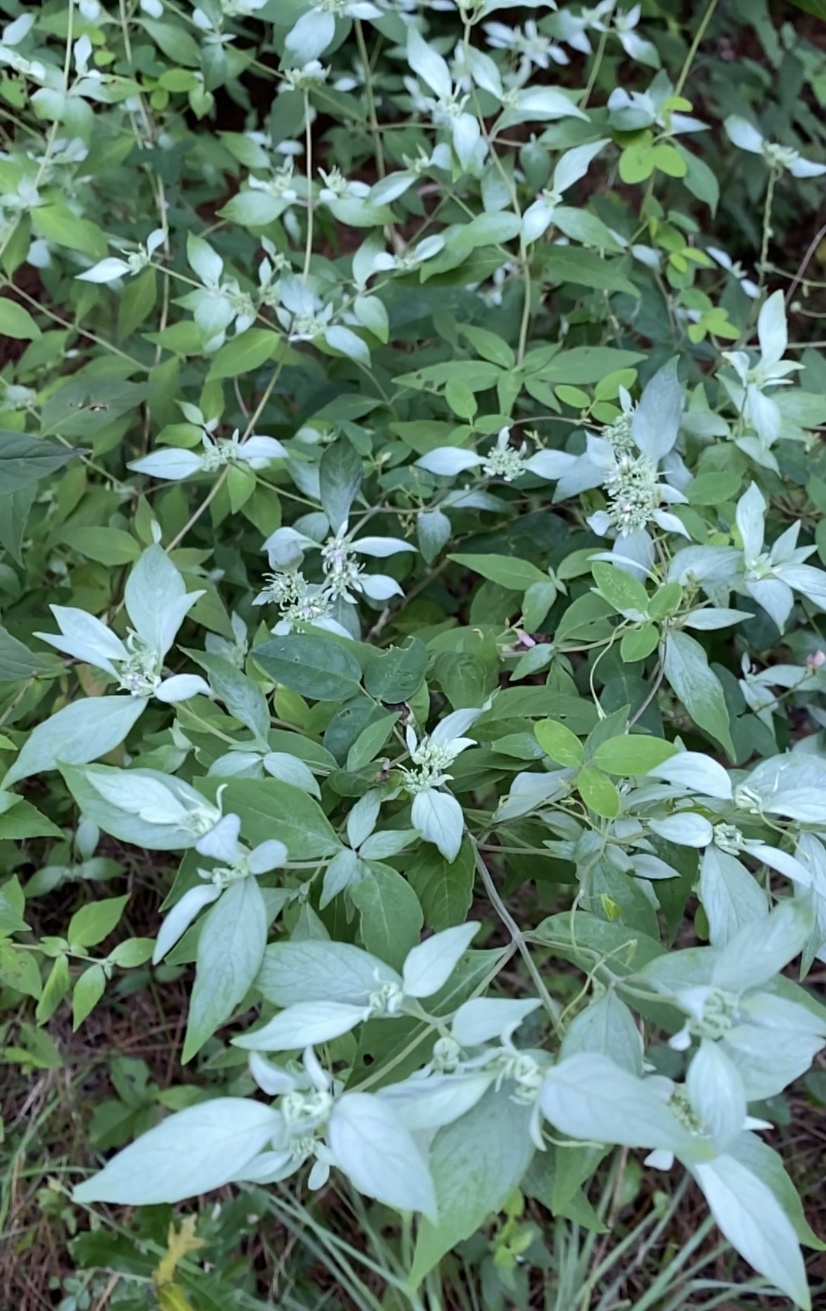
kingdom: Plantae
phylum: Tracheophyta
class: Magnoliopsida
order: Lamiales
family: Lamiaceae
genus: Pycnanthemum
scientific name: Pycnanthemum albescens
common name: White-leaf mountain-mint
